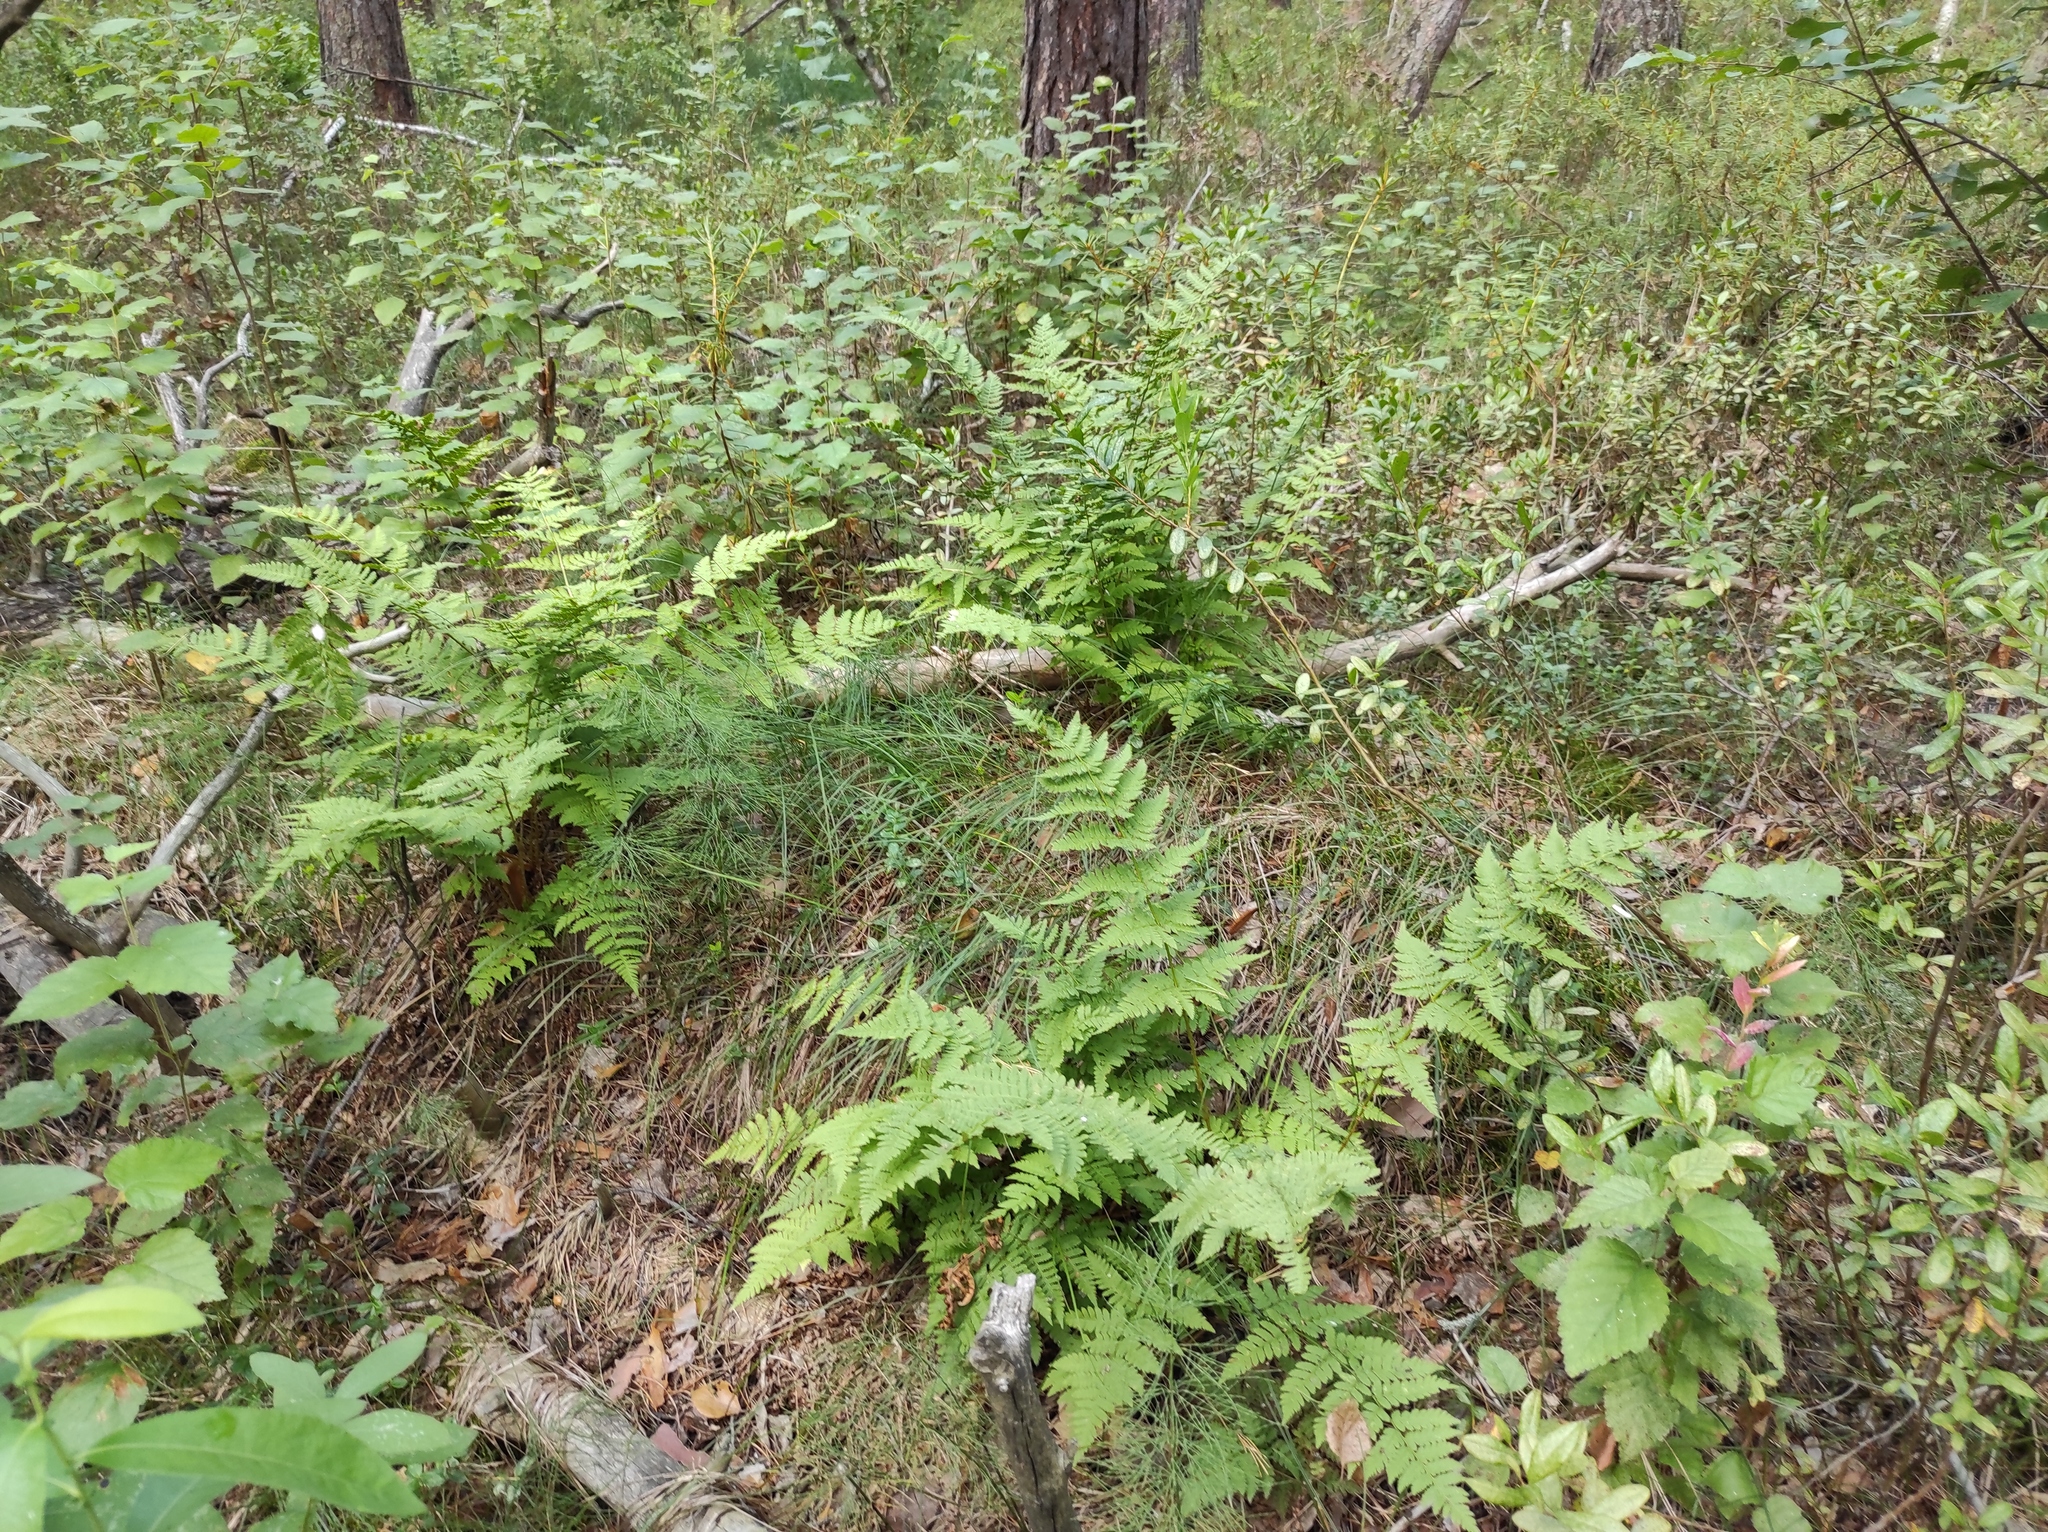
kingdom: Plantae
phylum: Tracheophyta
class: Polypodiopsida
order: Polypodiales
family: Dryopteridaceae
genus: Dryopteris
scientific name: Dryopteris carthusiana
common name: Narrow buckler-fern
